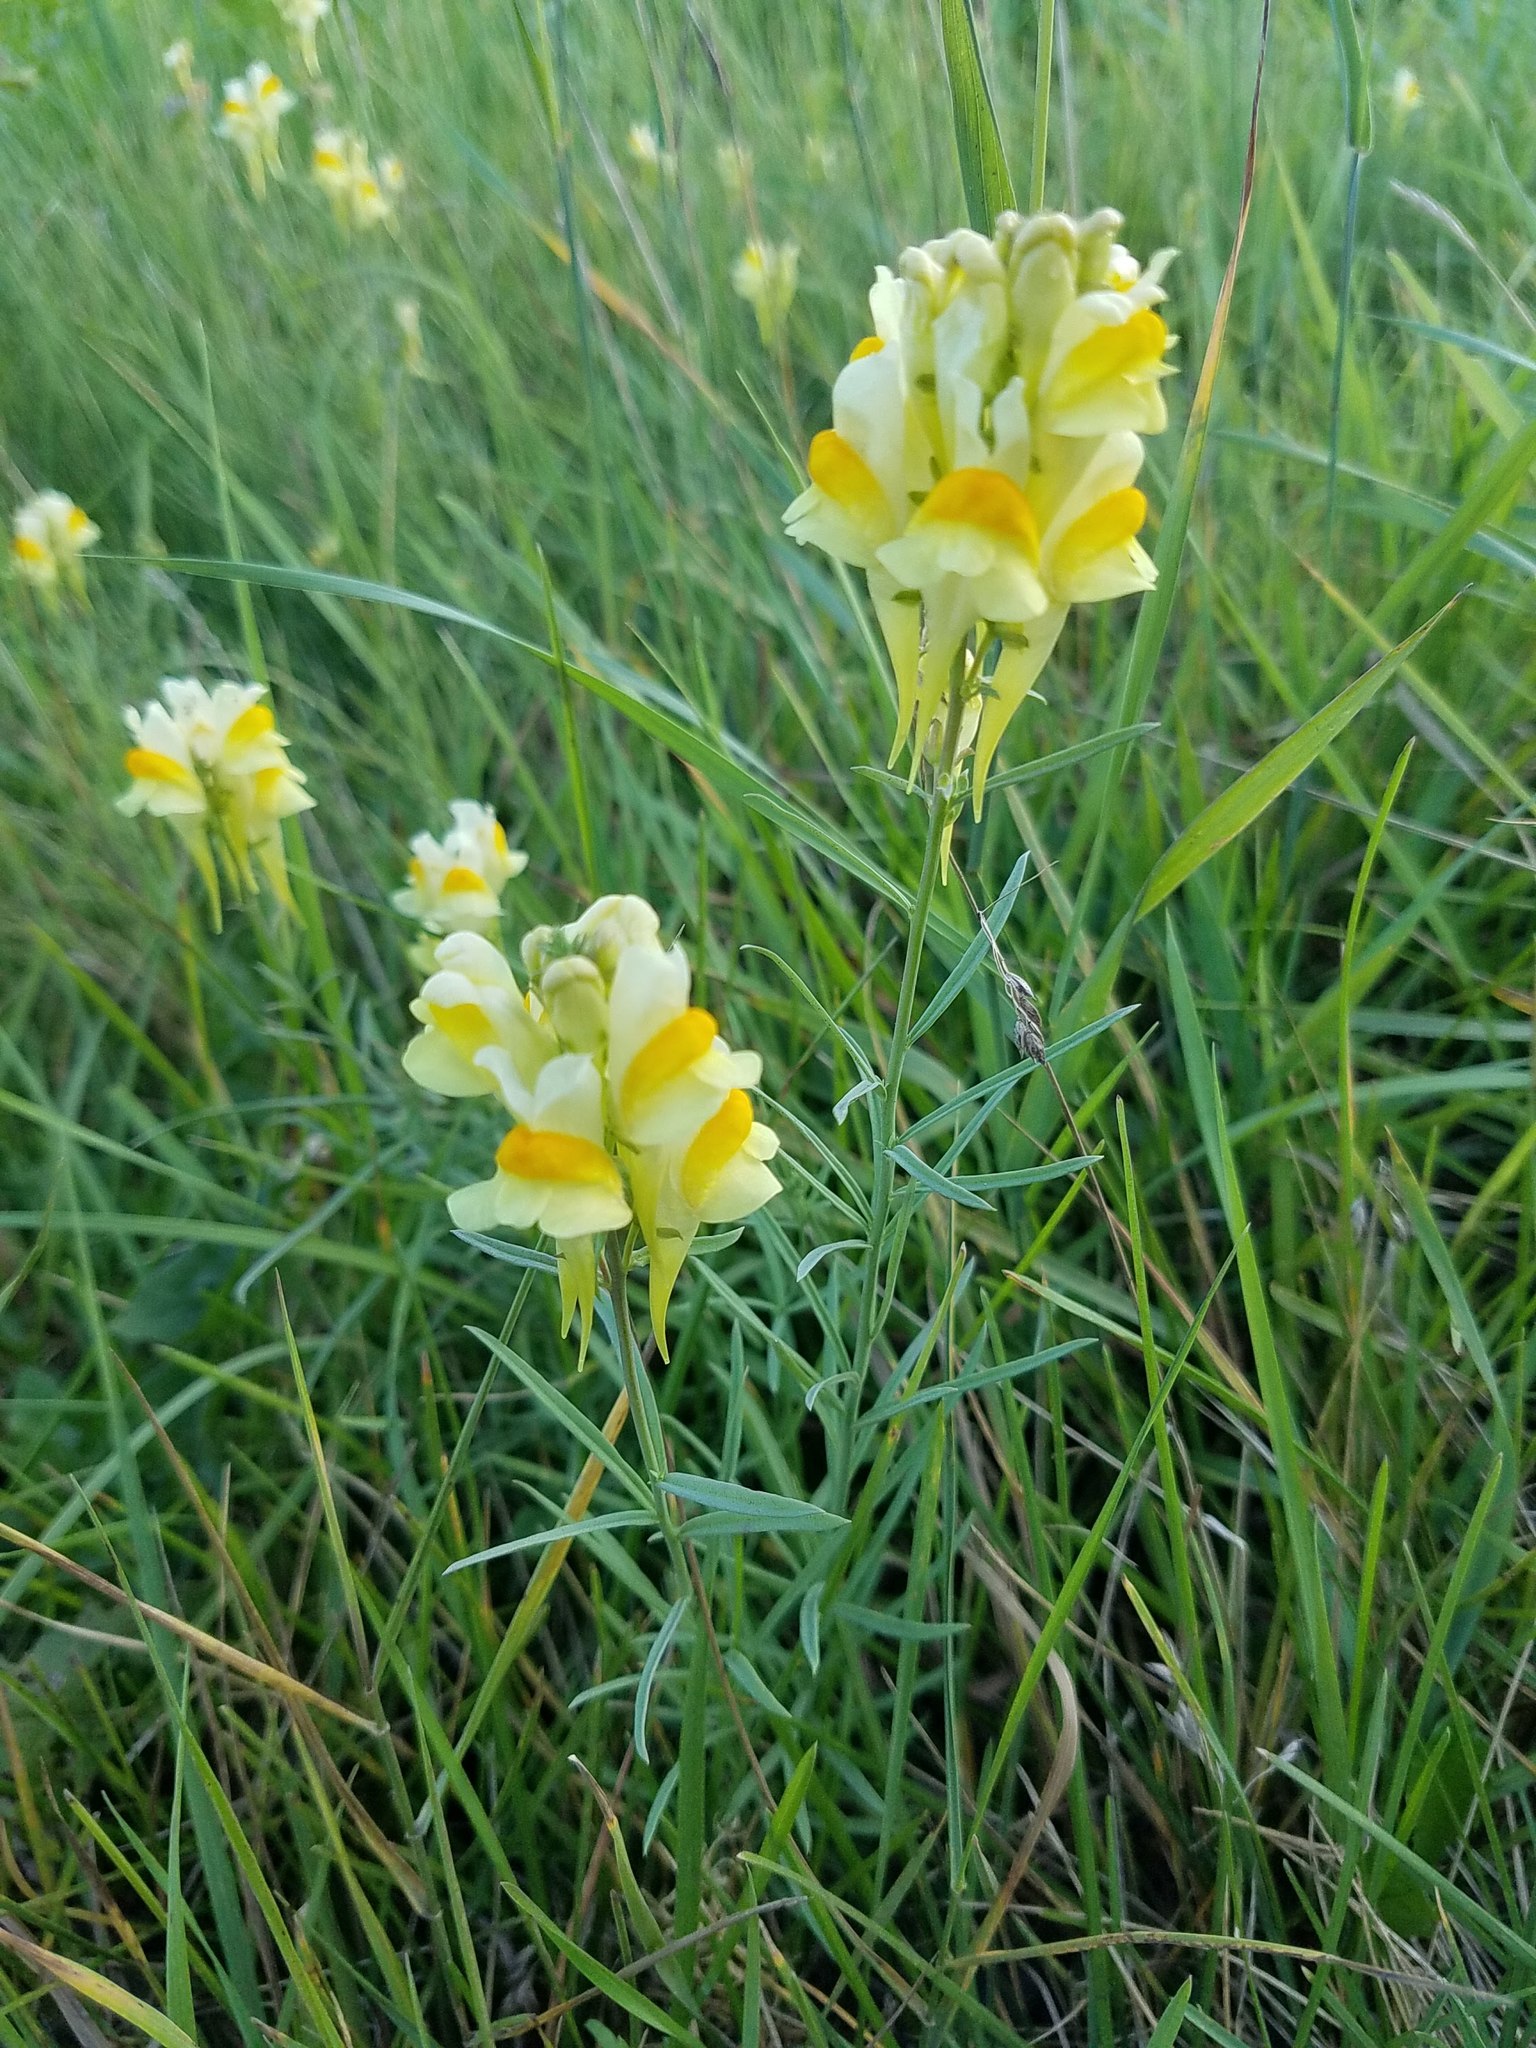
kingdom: Plantae
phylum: Tracheophyta
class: Magnoliopsida
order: Lamiales
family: Plantaginaceae
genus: Linaria
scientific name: Linaria vulgaris
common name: Butter and eggs
